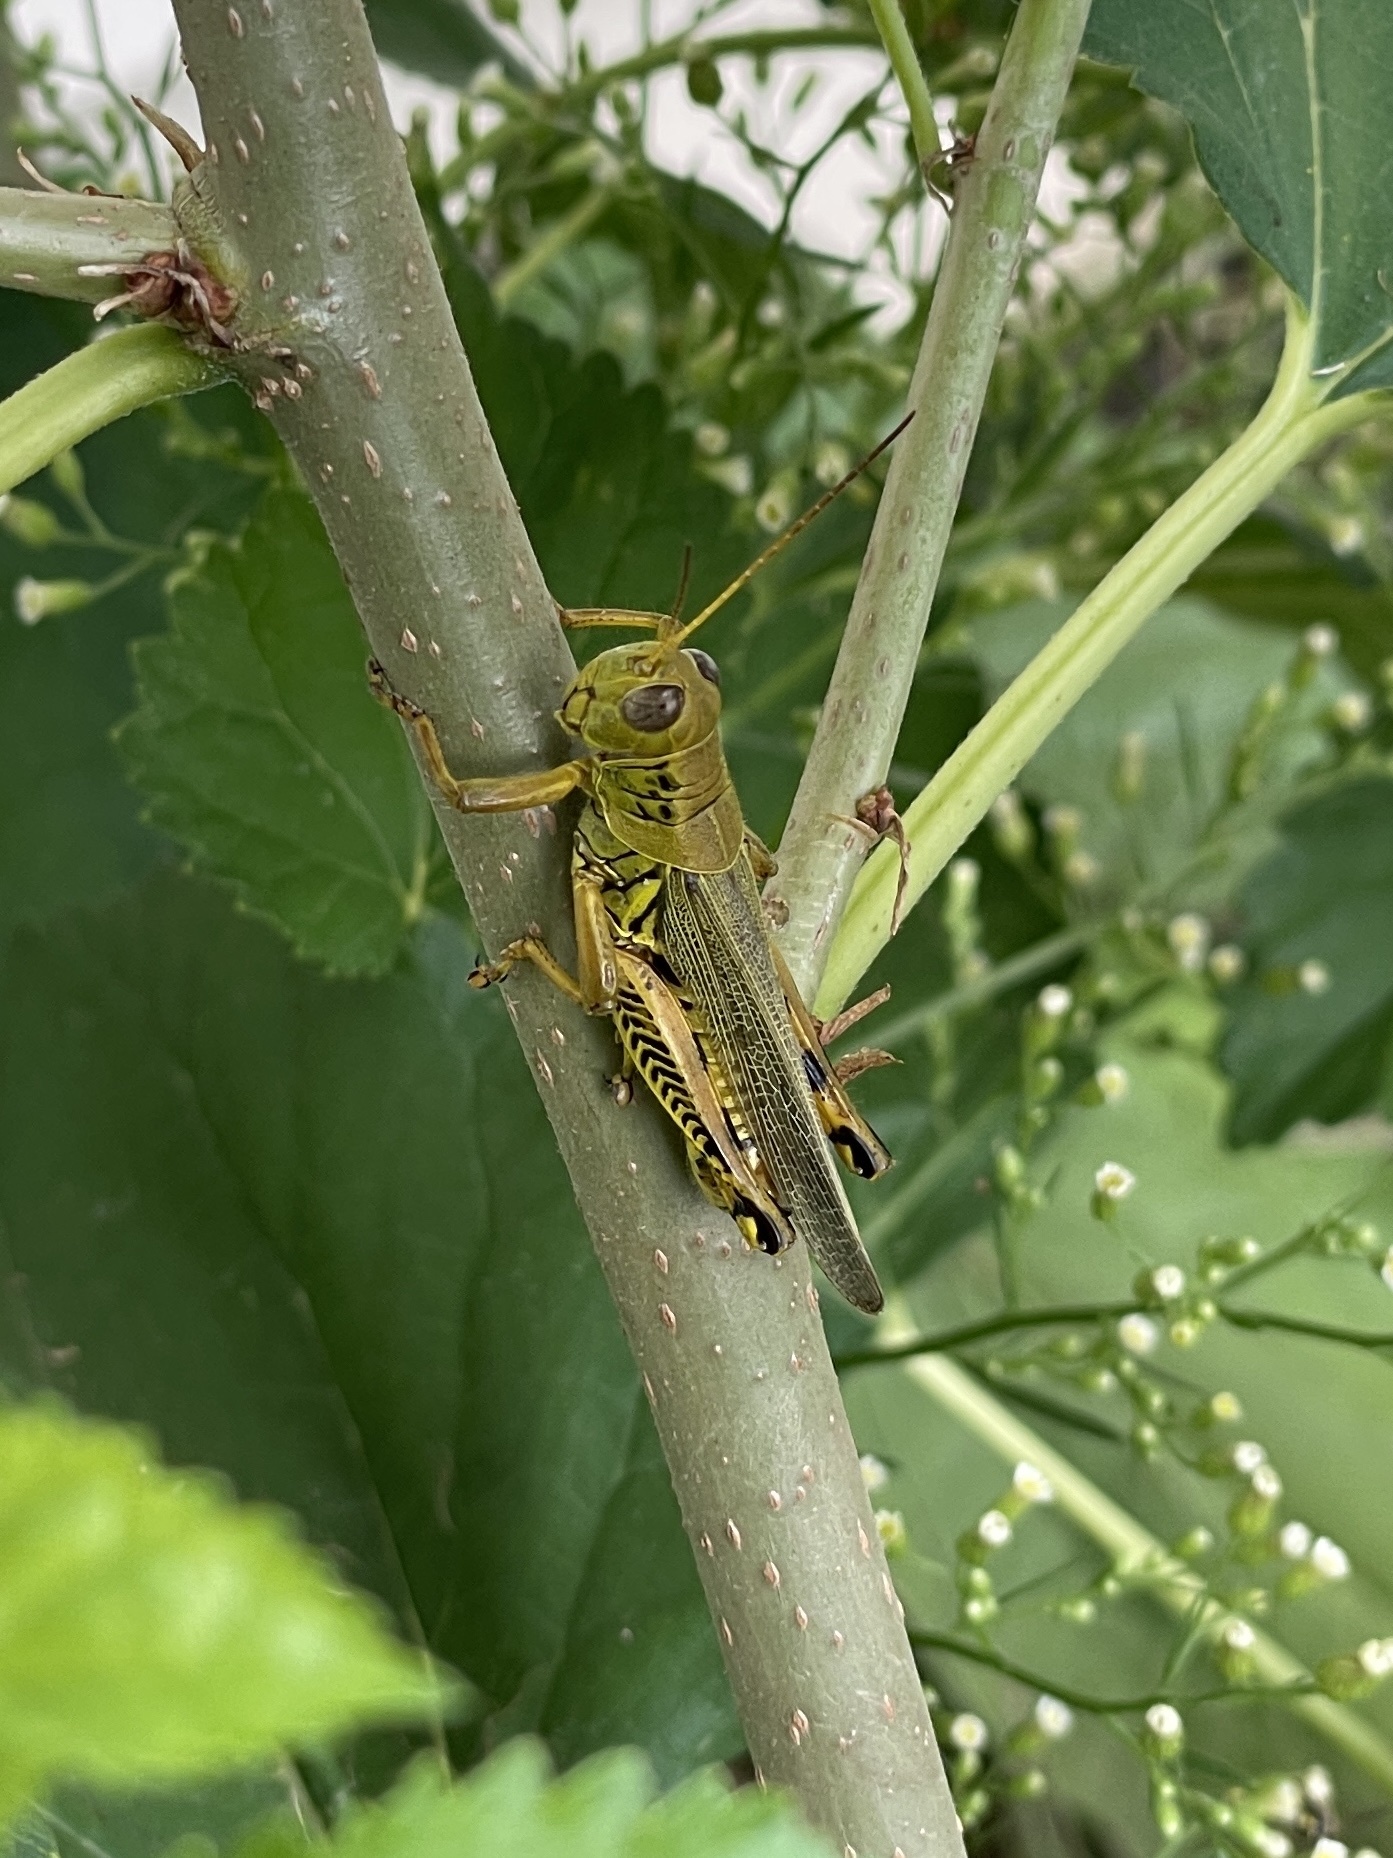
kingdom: Animalia
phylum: Arthropoda
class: Insecta
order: Orthoptera
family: Acrididae
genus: Melanoplus
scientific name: Melanoplus differentialis
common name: Differential grasshopper
